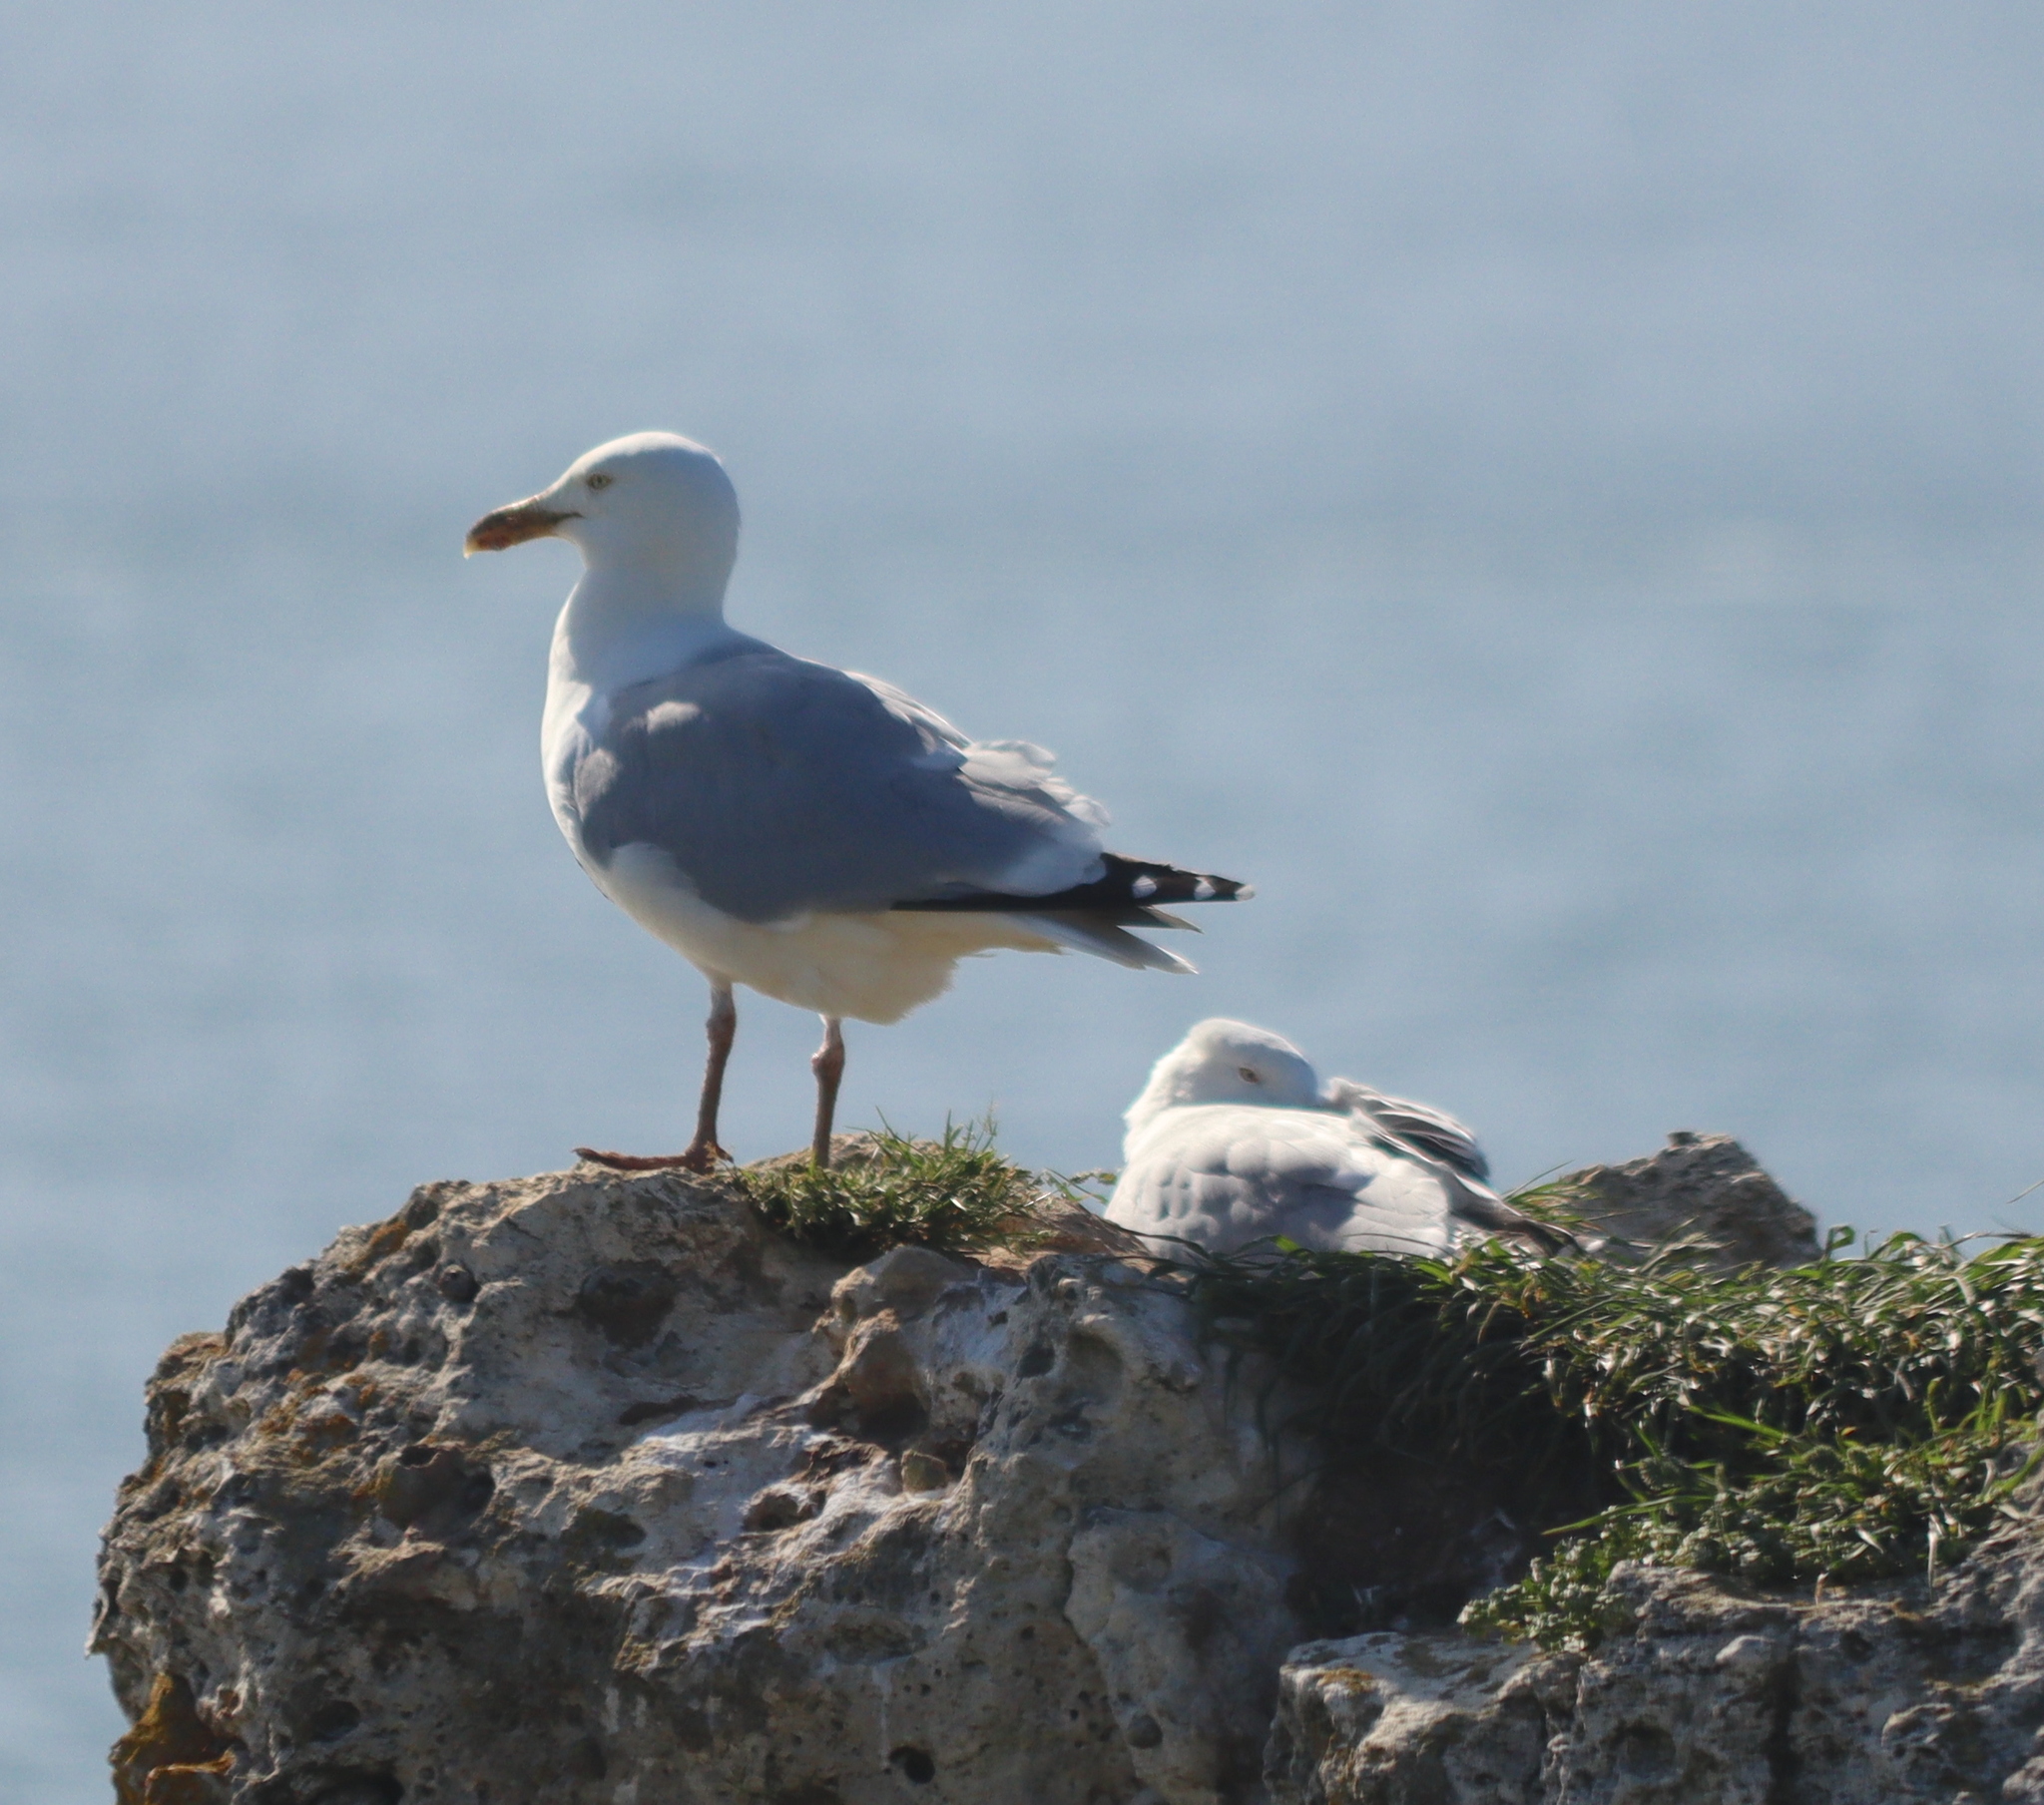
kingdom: Animalia
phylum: Chordata
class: Aves
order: Charadriiformes
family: Laridae
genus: Larus
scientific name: Larus argentatus
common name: Herring gull
